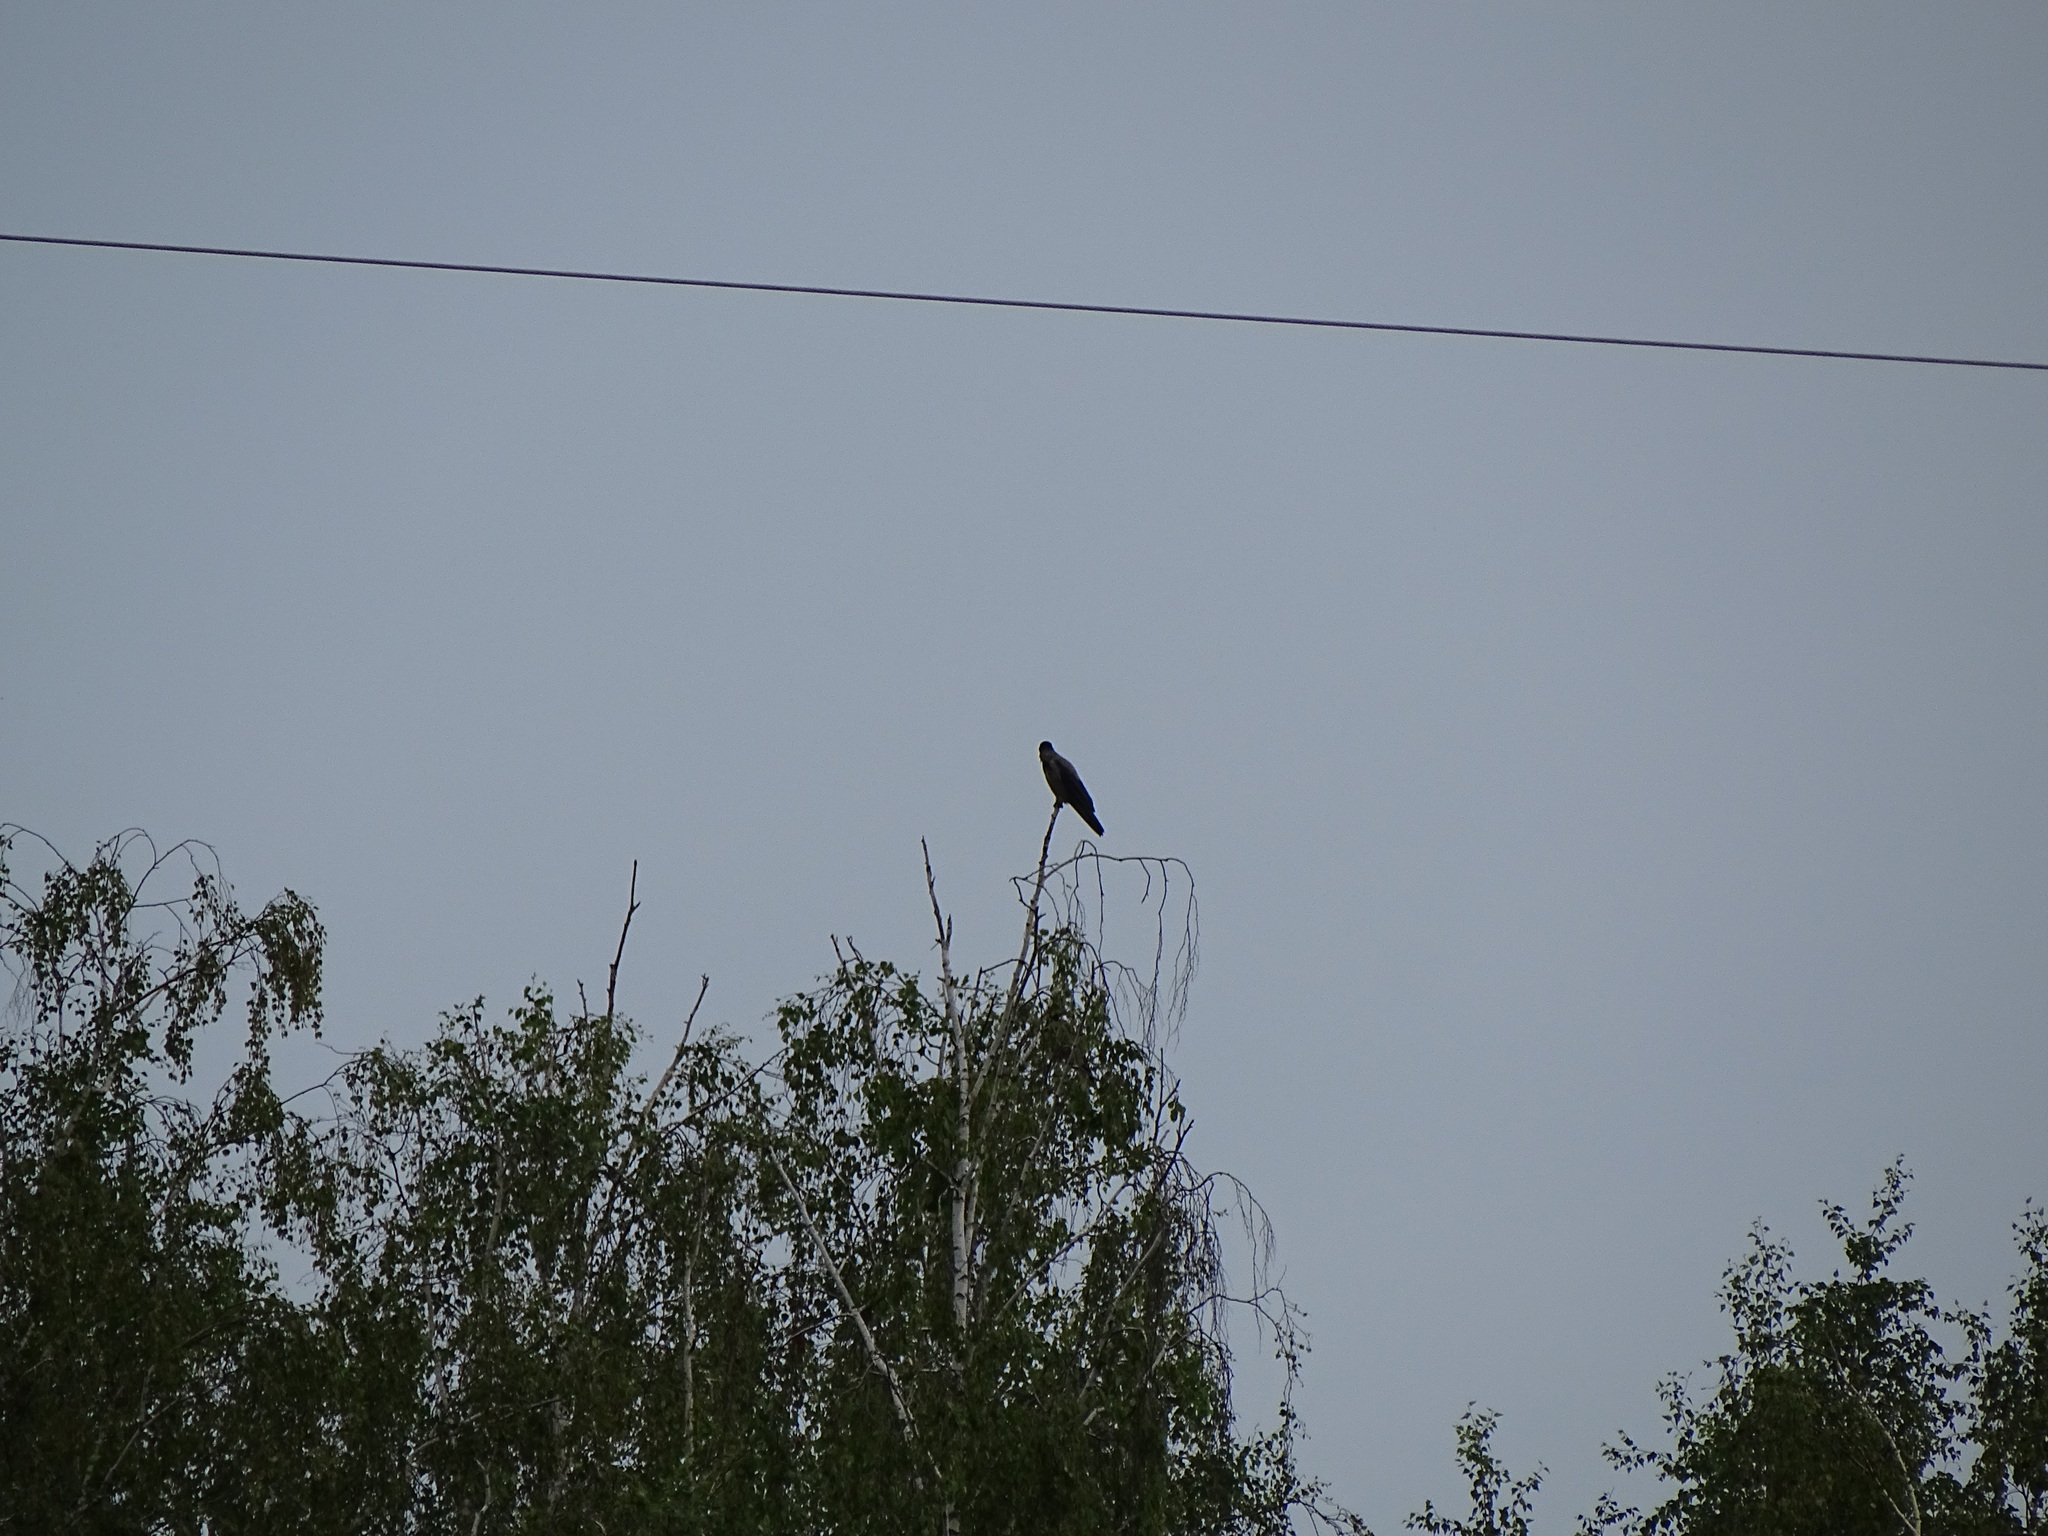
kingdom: Animalia
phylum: Chordata
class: Aves
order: Passeriformes
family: Corvidae
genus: Corvus
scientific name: Corvus cornix
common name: Hooded crow
